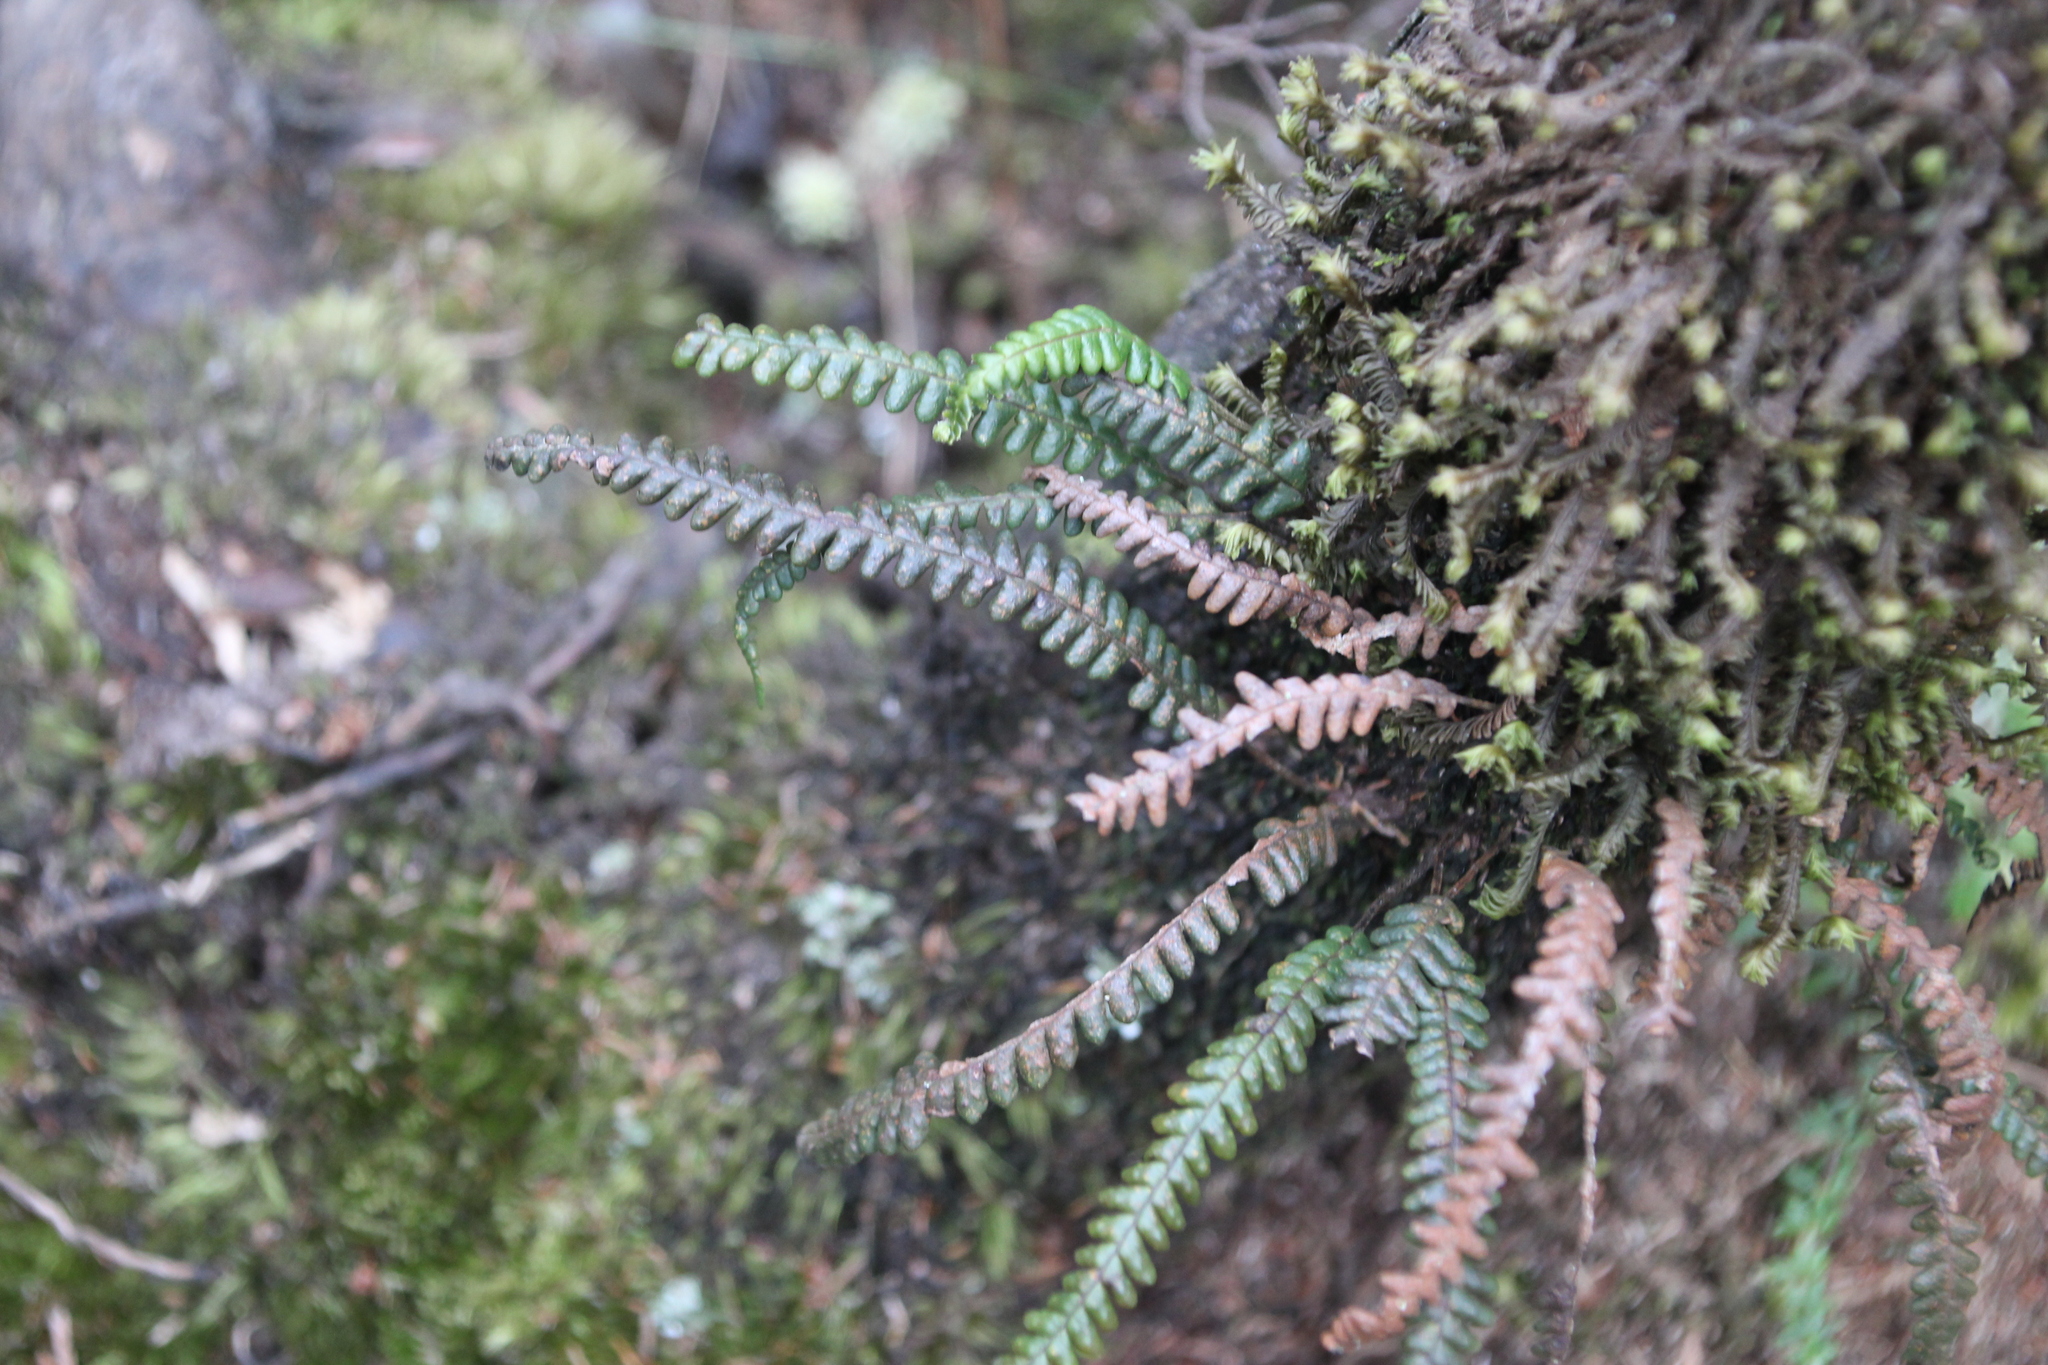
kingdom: Plantae
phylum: Tracheophyta
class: Polypodiopsida
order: Polypodiales
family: Polypodiaceae
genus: Melpomene
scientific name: Melpomene flabelliformis
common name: Fanleaf dwarf polypody
